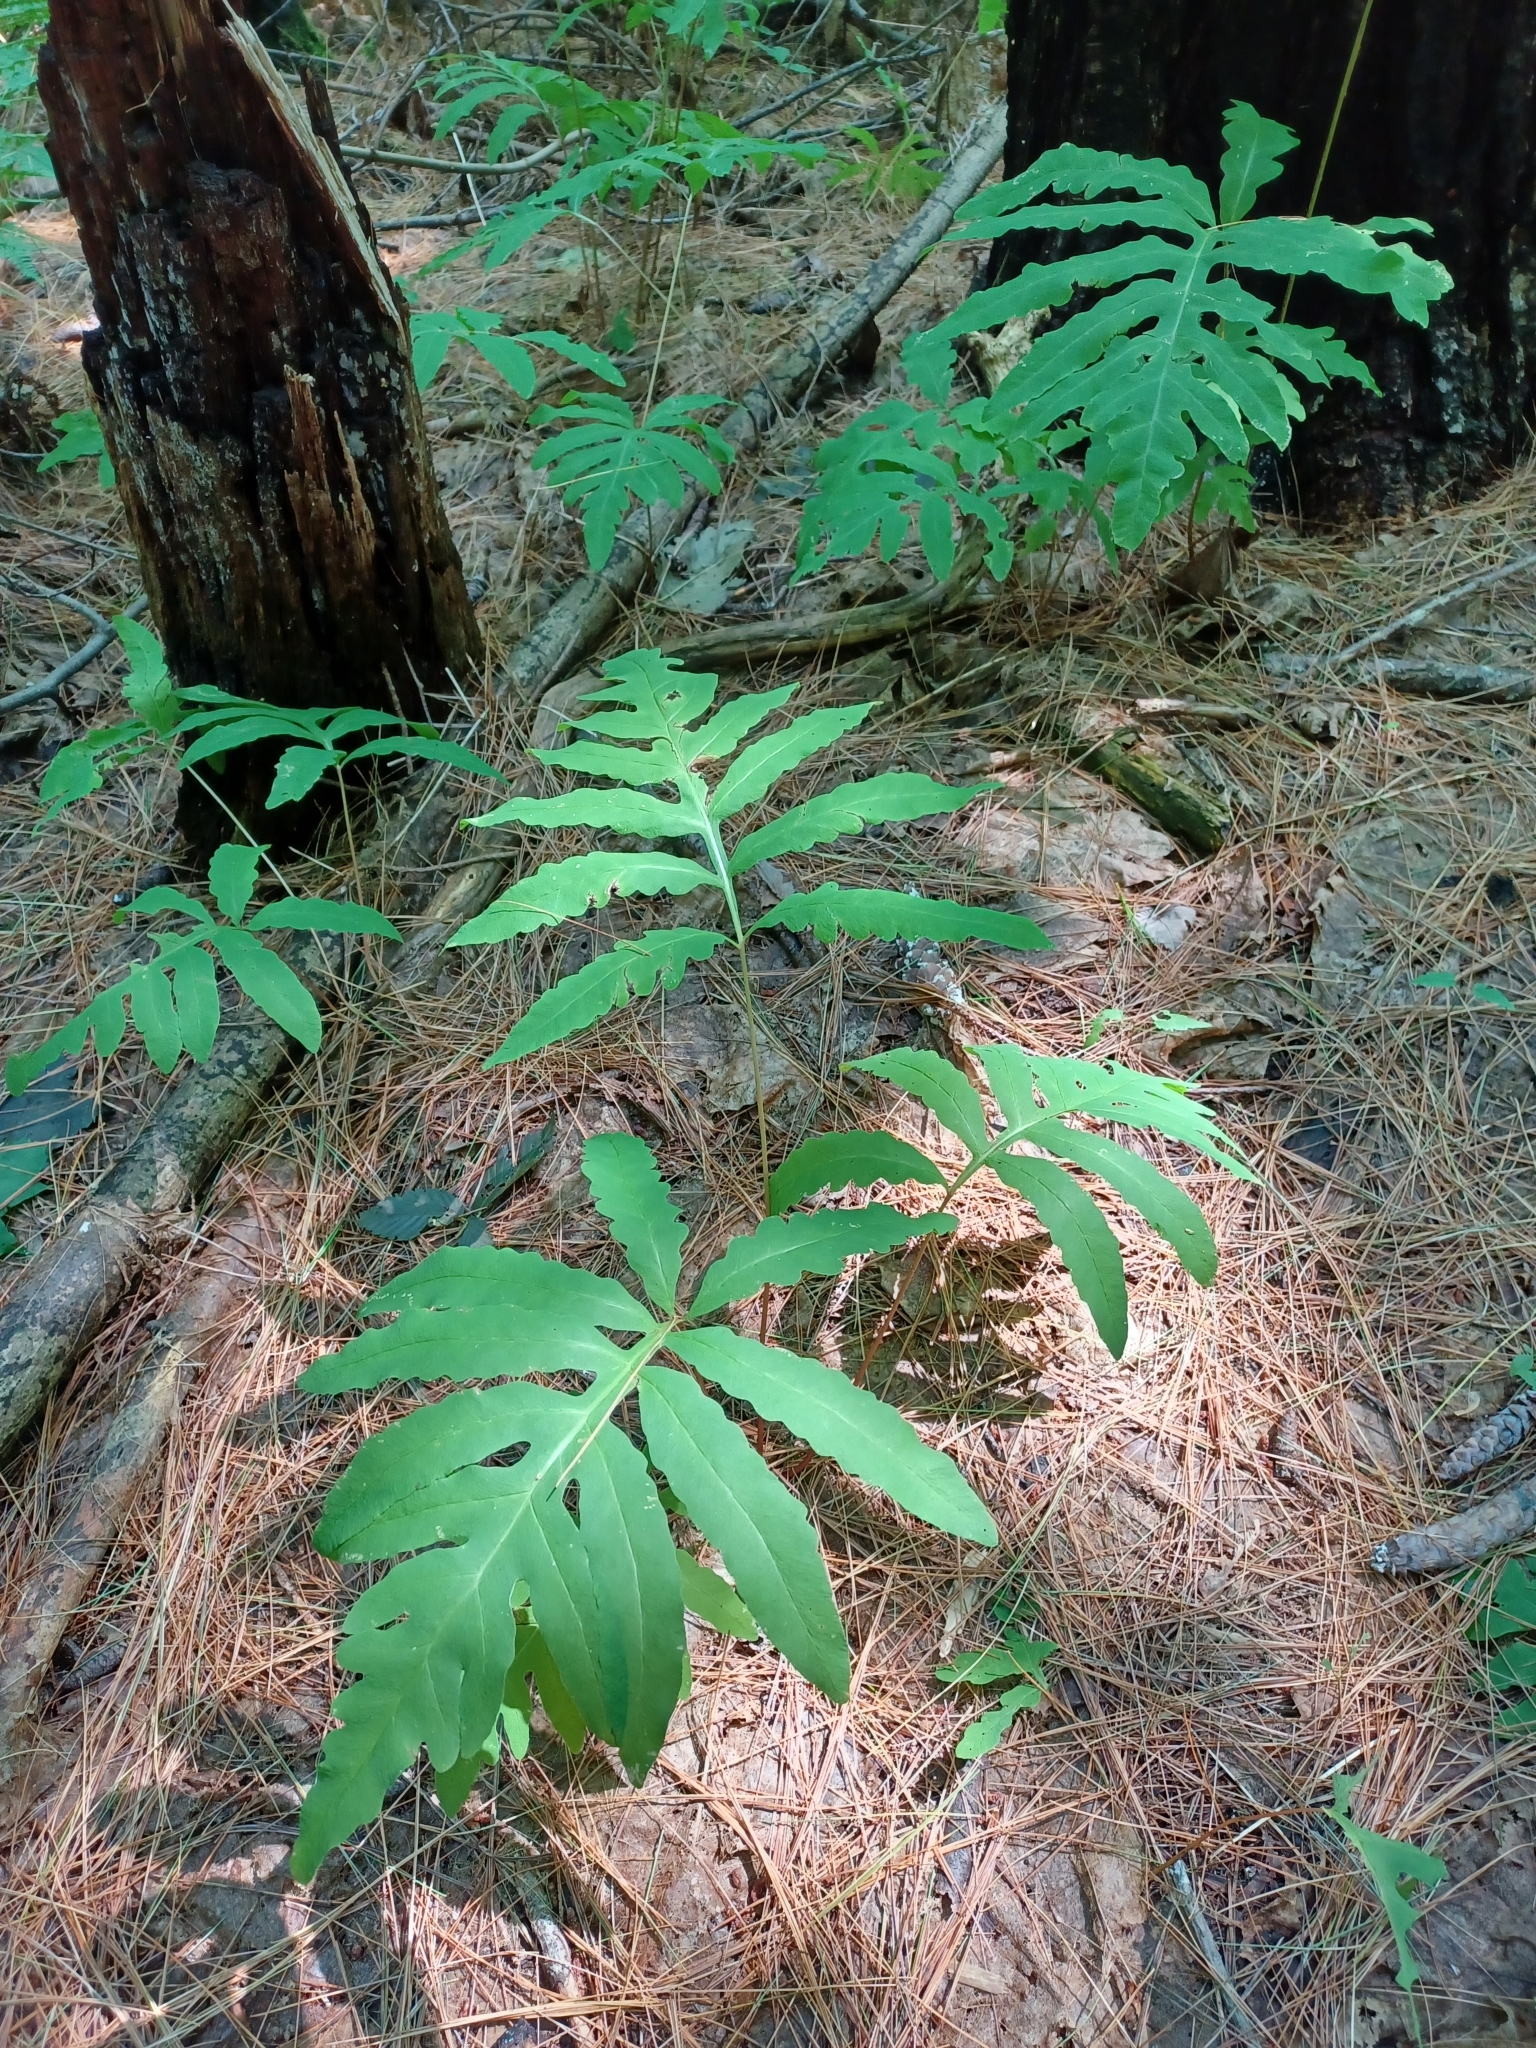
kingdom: Plantae
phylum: Tracheophyta
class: Polypodiopsida
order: Polypodiales
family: Onocleaceae
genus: Onoclea
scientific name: Onoclea sensibilis
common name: Sensitive fern
